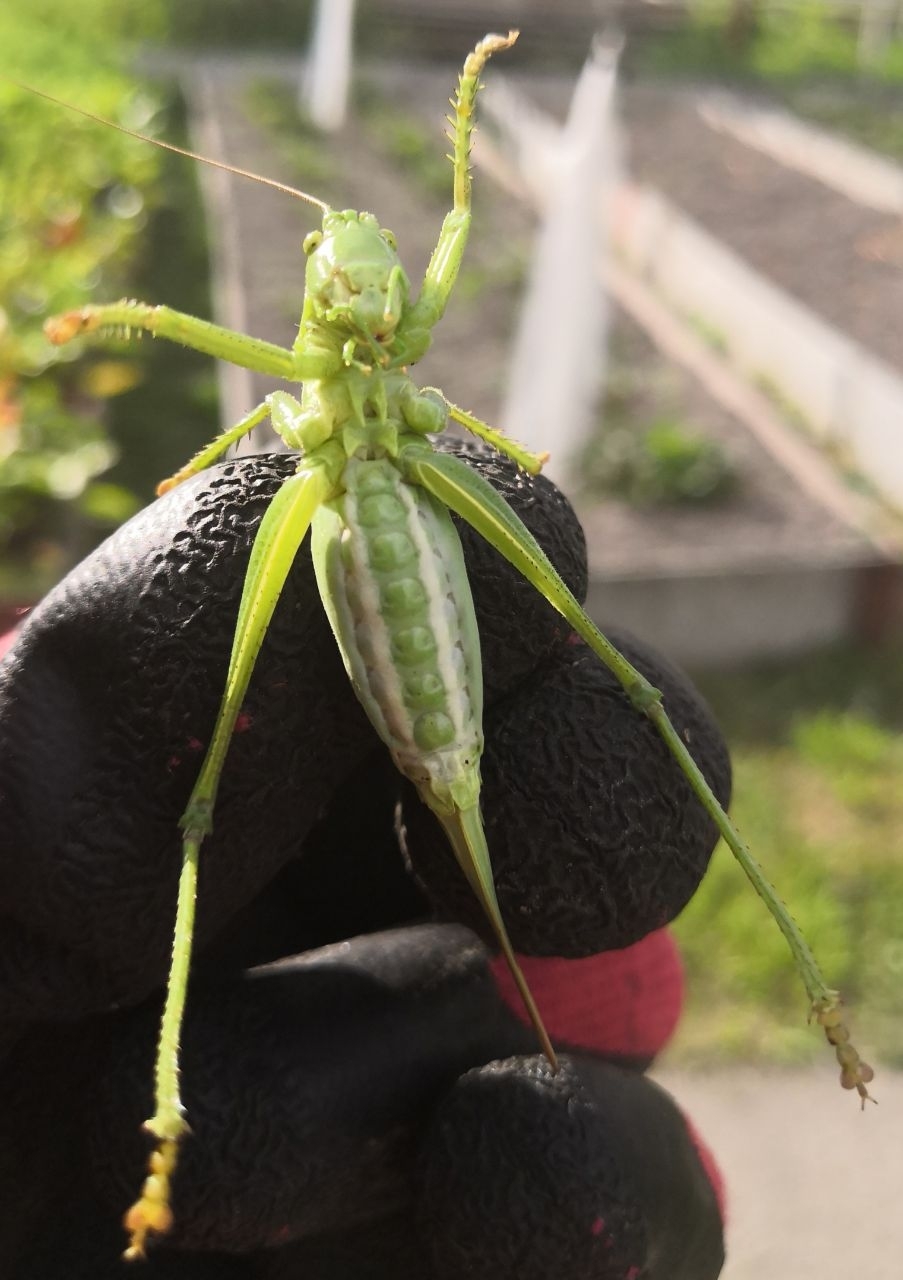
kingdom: Animalia
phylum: Arthropoda
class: Insecta
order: Orthoptera
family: Tettigoniidae
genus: Tettigonia
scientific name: Tettigonia cantans
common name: Upland green bush-cricket
